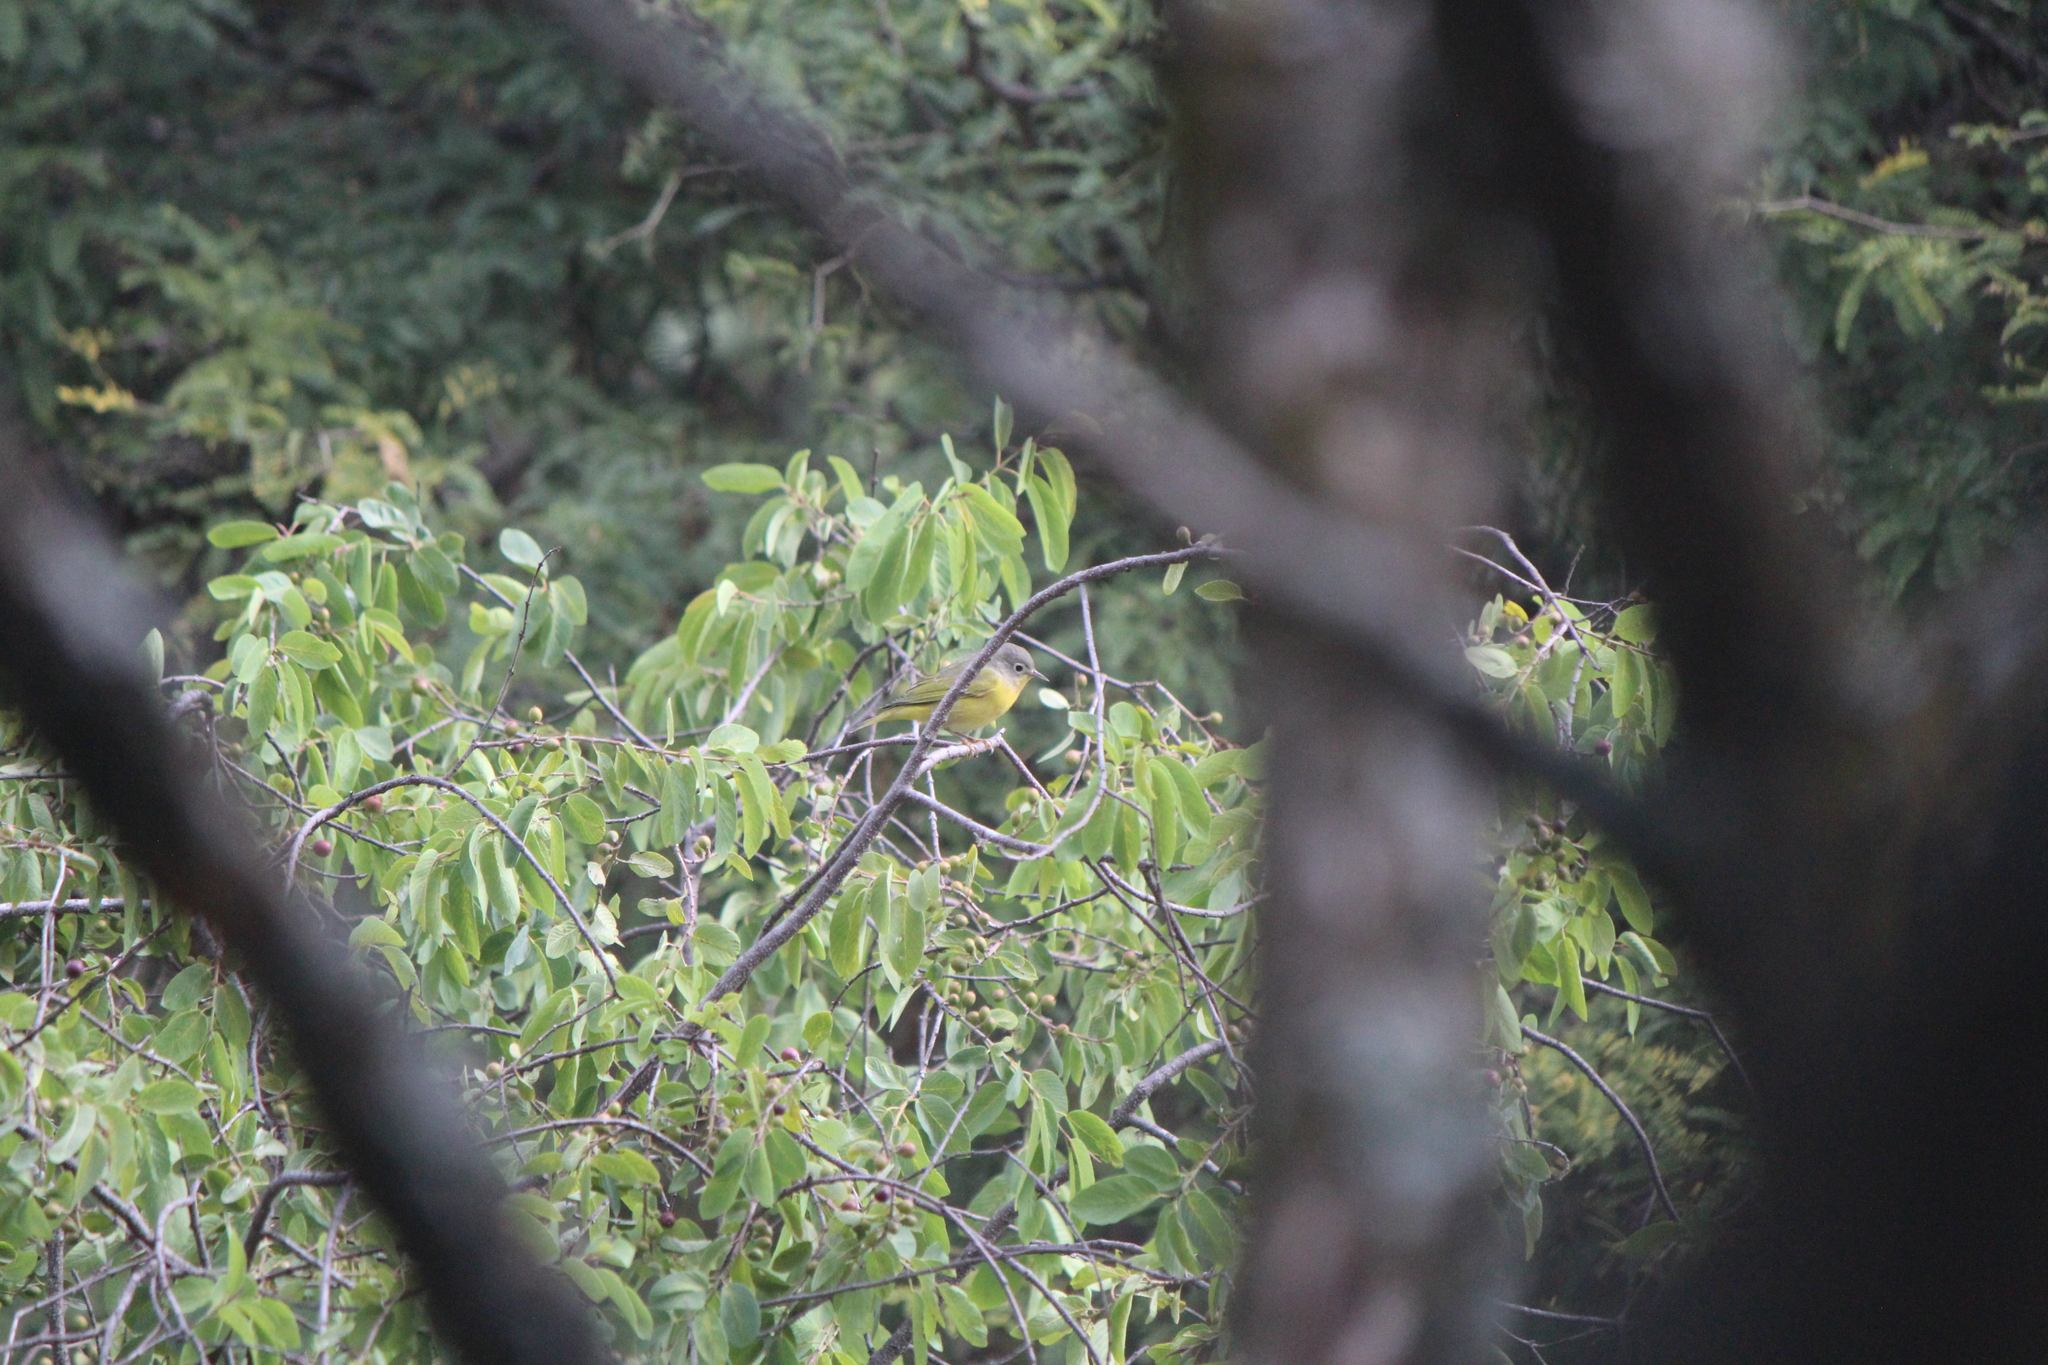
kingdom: Animalia
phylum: Chordata
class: Aves
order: Passeriformes
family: Parulidae
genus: Leiothlypis
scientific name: Leiothlypis ruficapilla
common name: Nashville warbler
